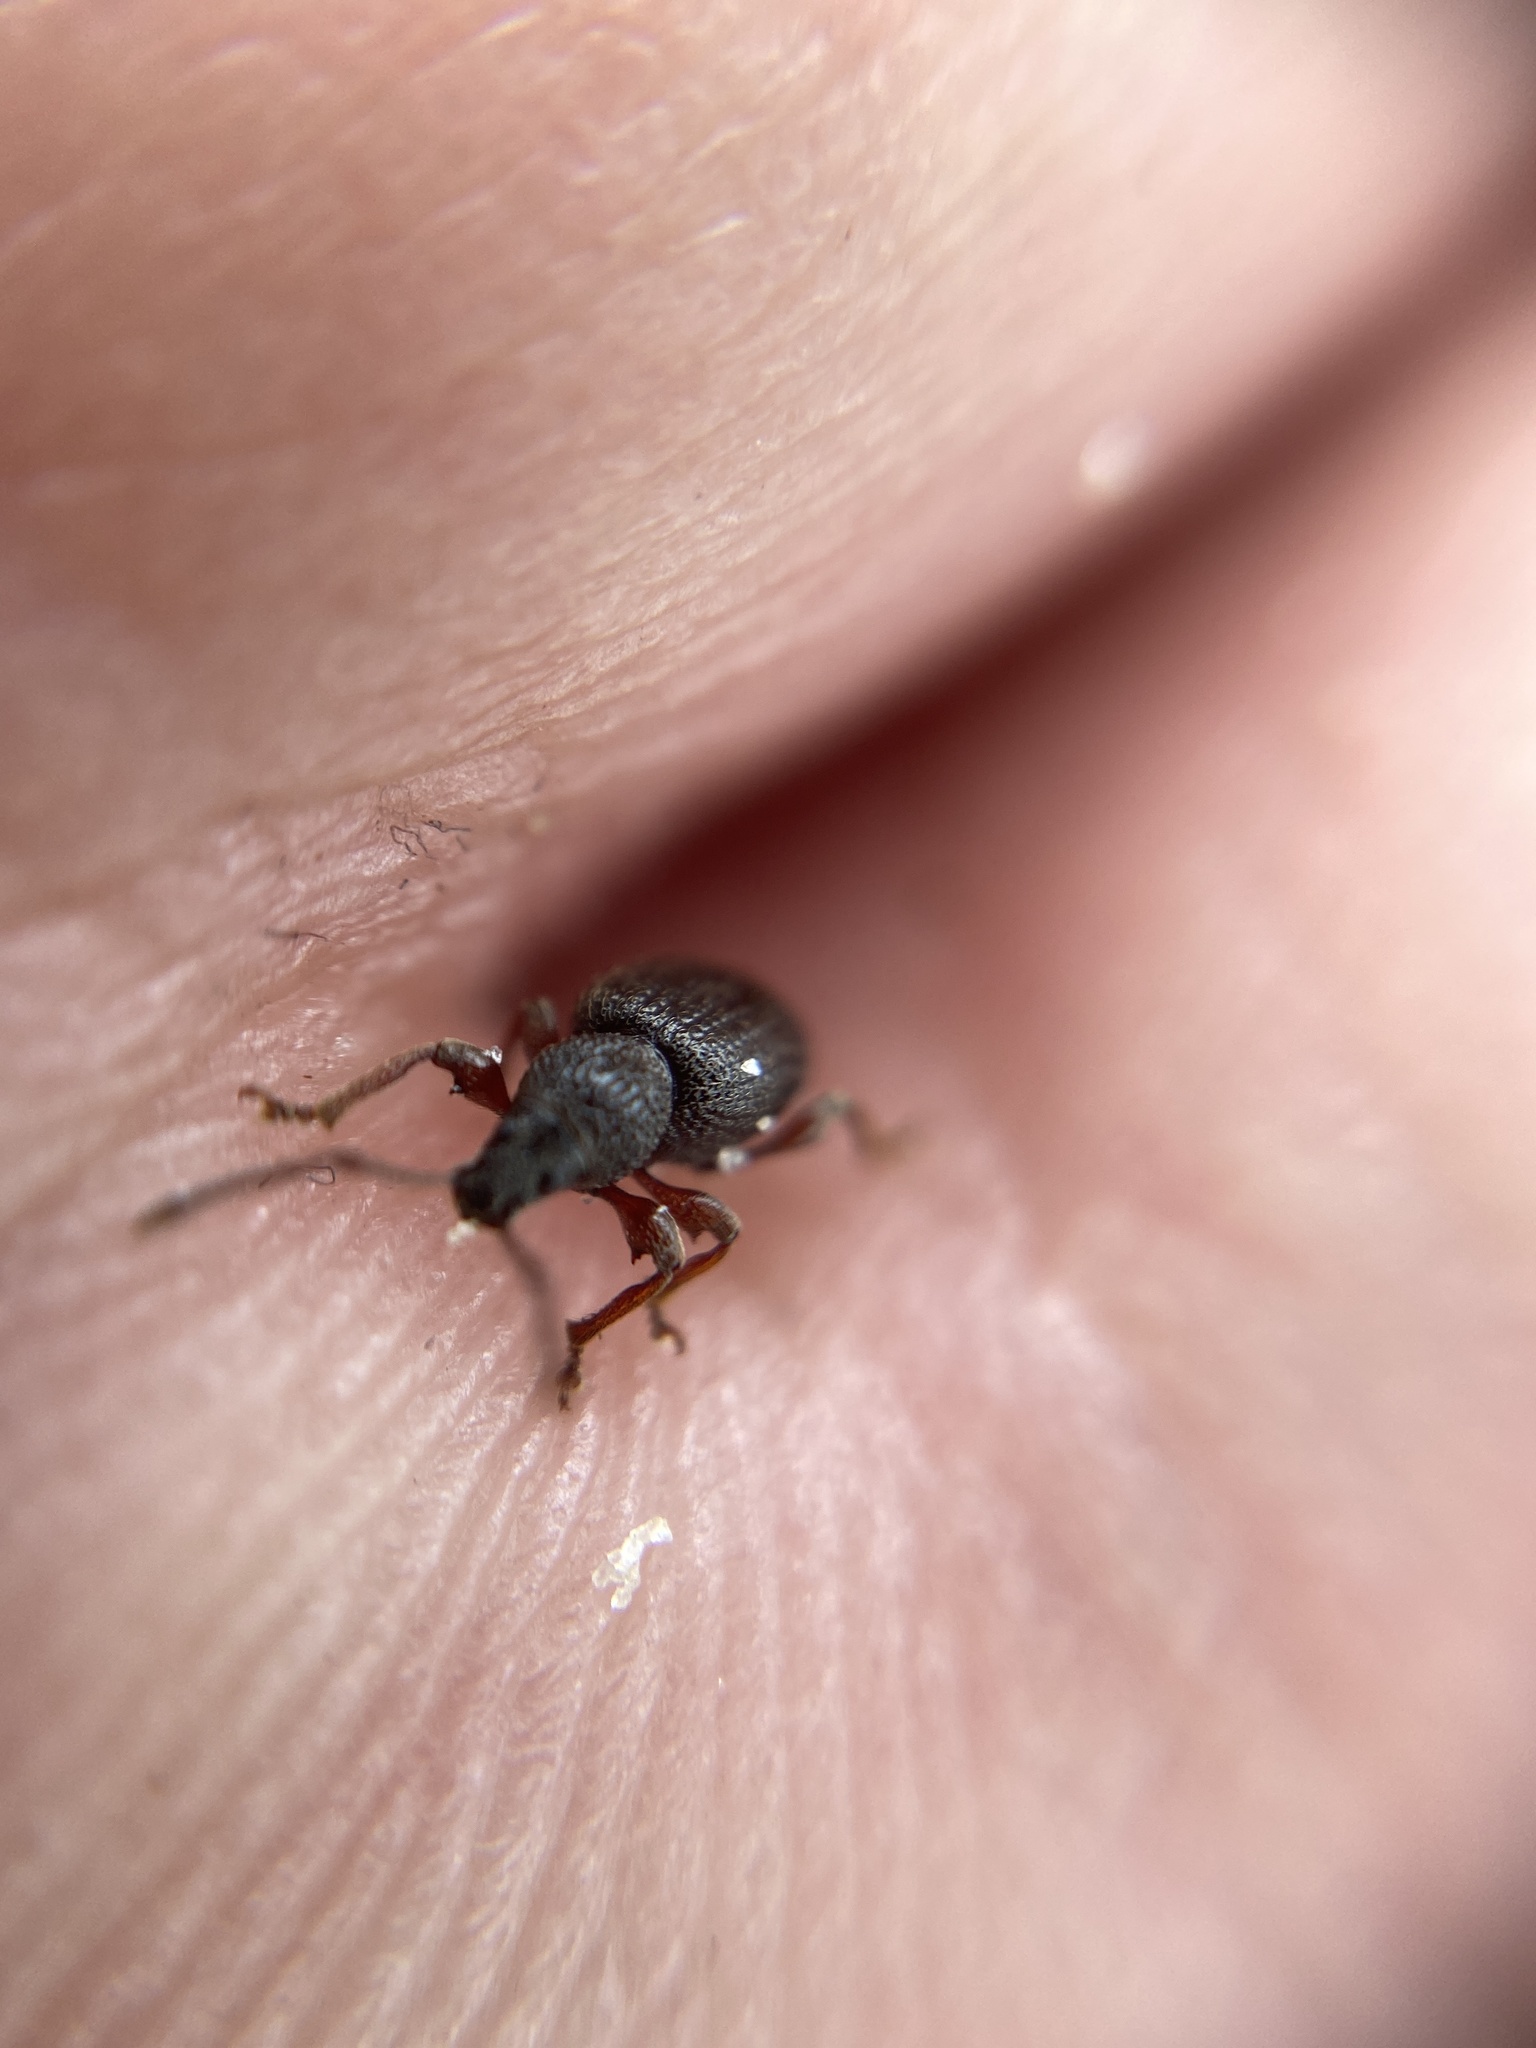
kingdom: Animalia
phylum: Arthropoda
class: Insecta
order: Coleoptera
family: Curculionidae
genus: Otiorhynchus
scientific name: Otiorhynchus ovatus
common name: Strawberry root weevil
